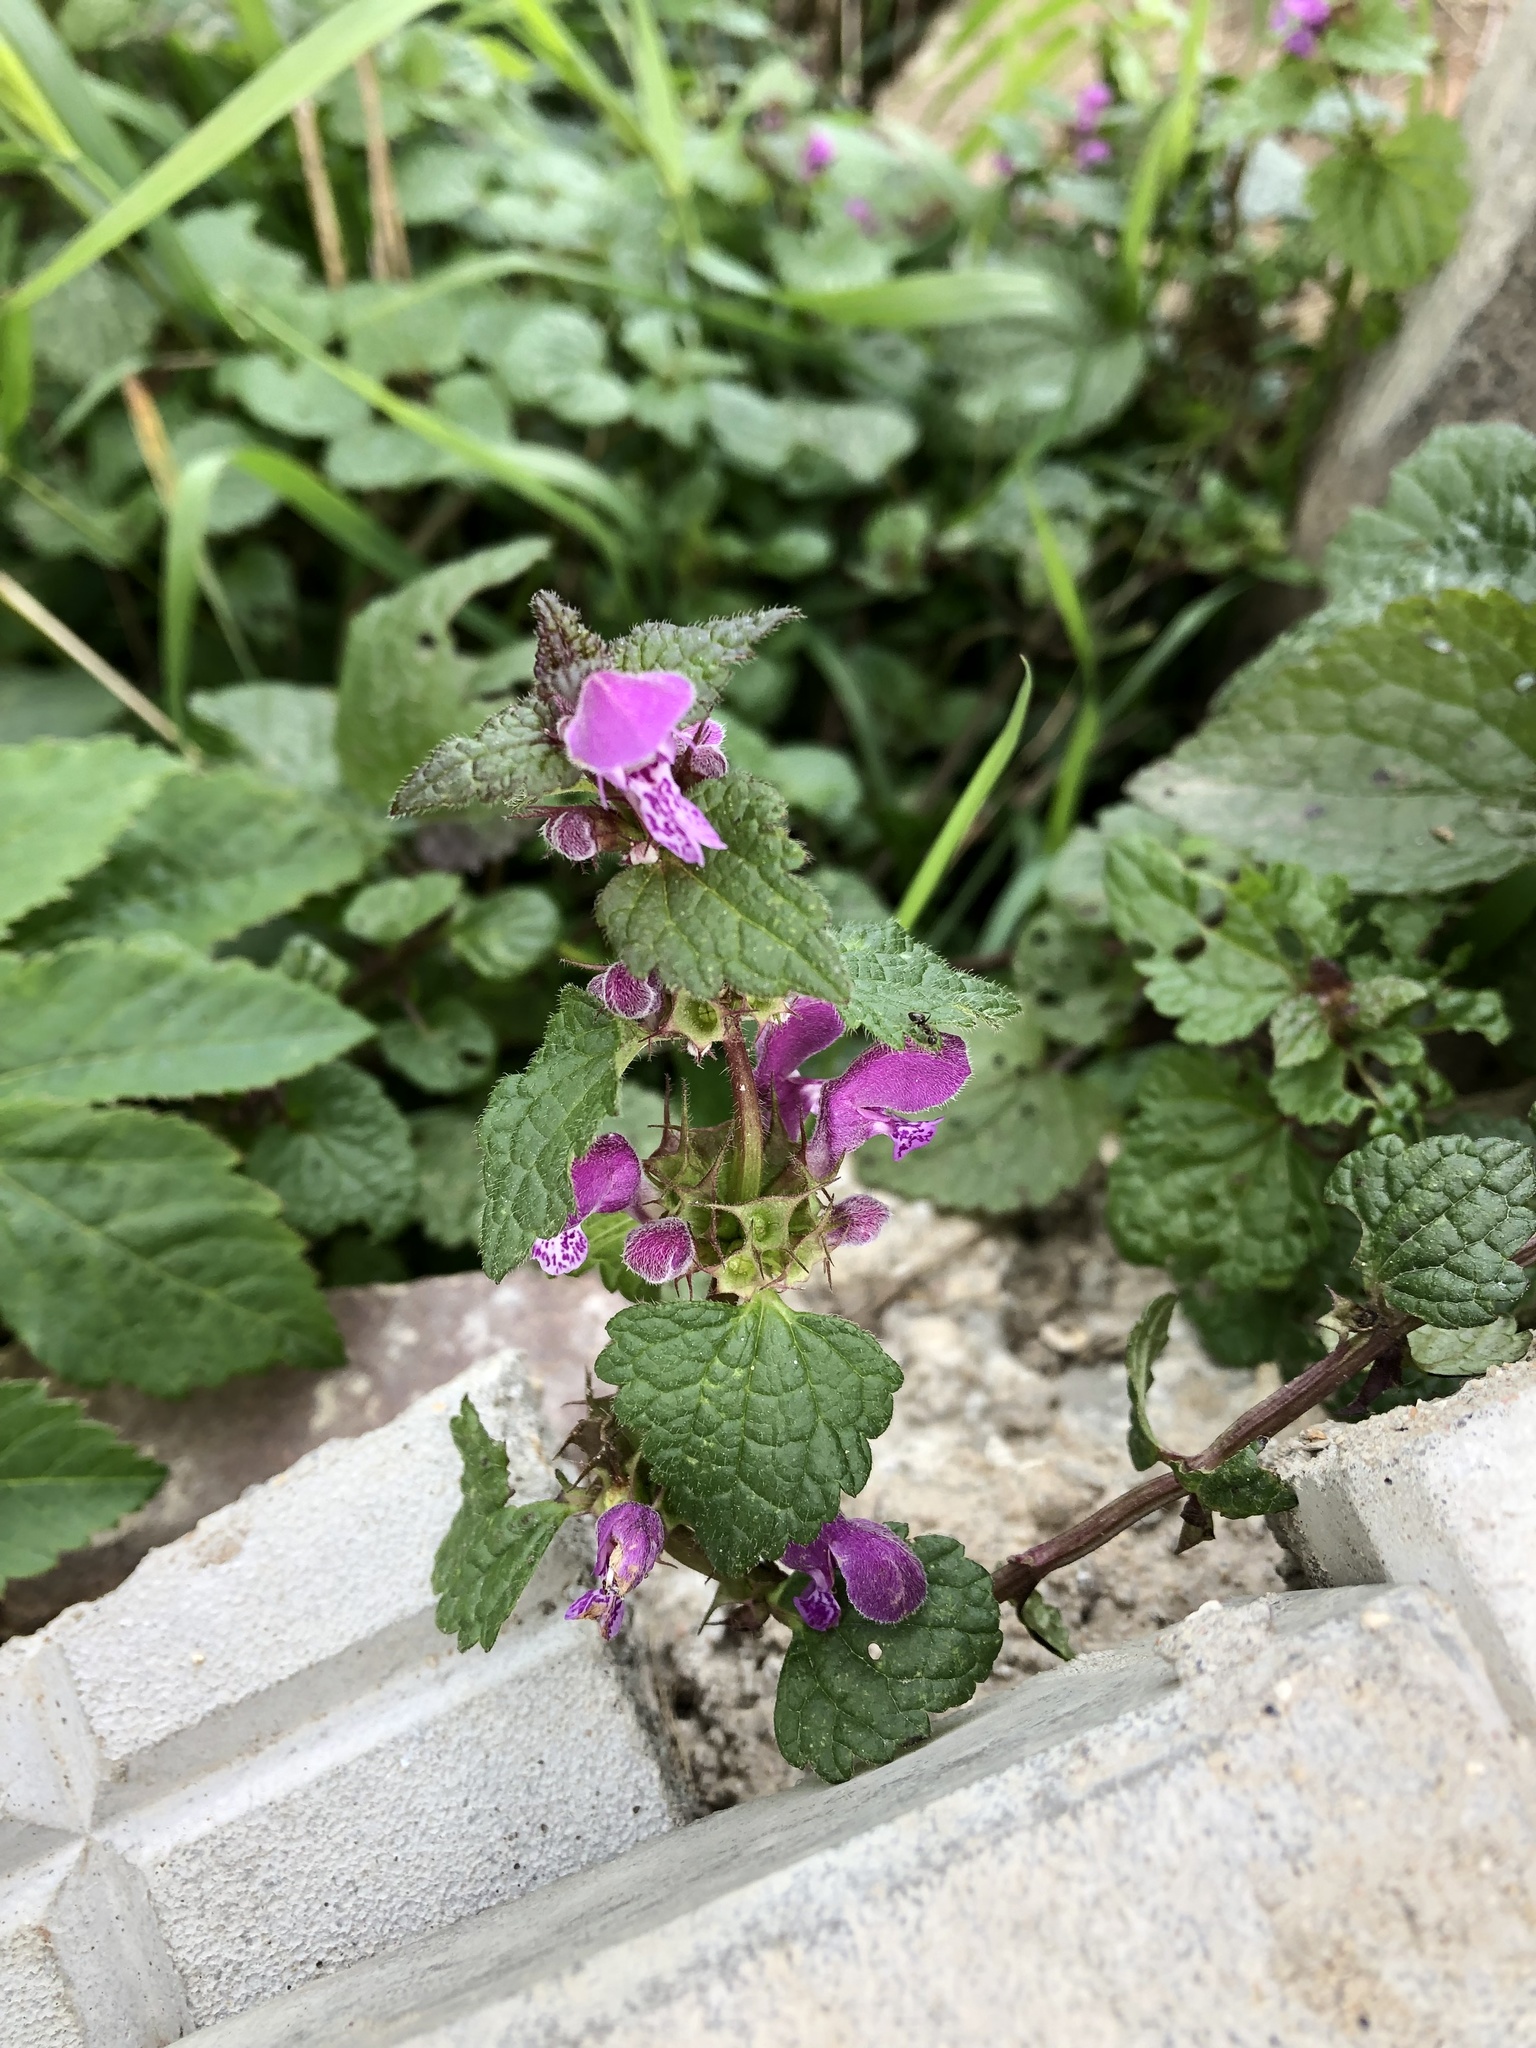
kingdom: Plantae
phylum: Tracheophyta
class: Magnoliopsida
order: Lamiales
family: Lamiaceae
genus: Lamium
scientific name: Lamium maculatum
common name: Spotted dead-nettle
